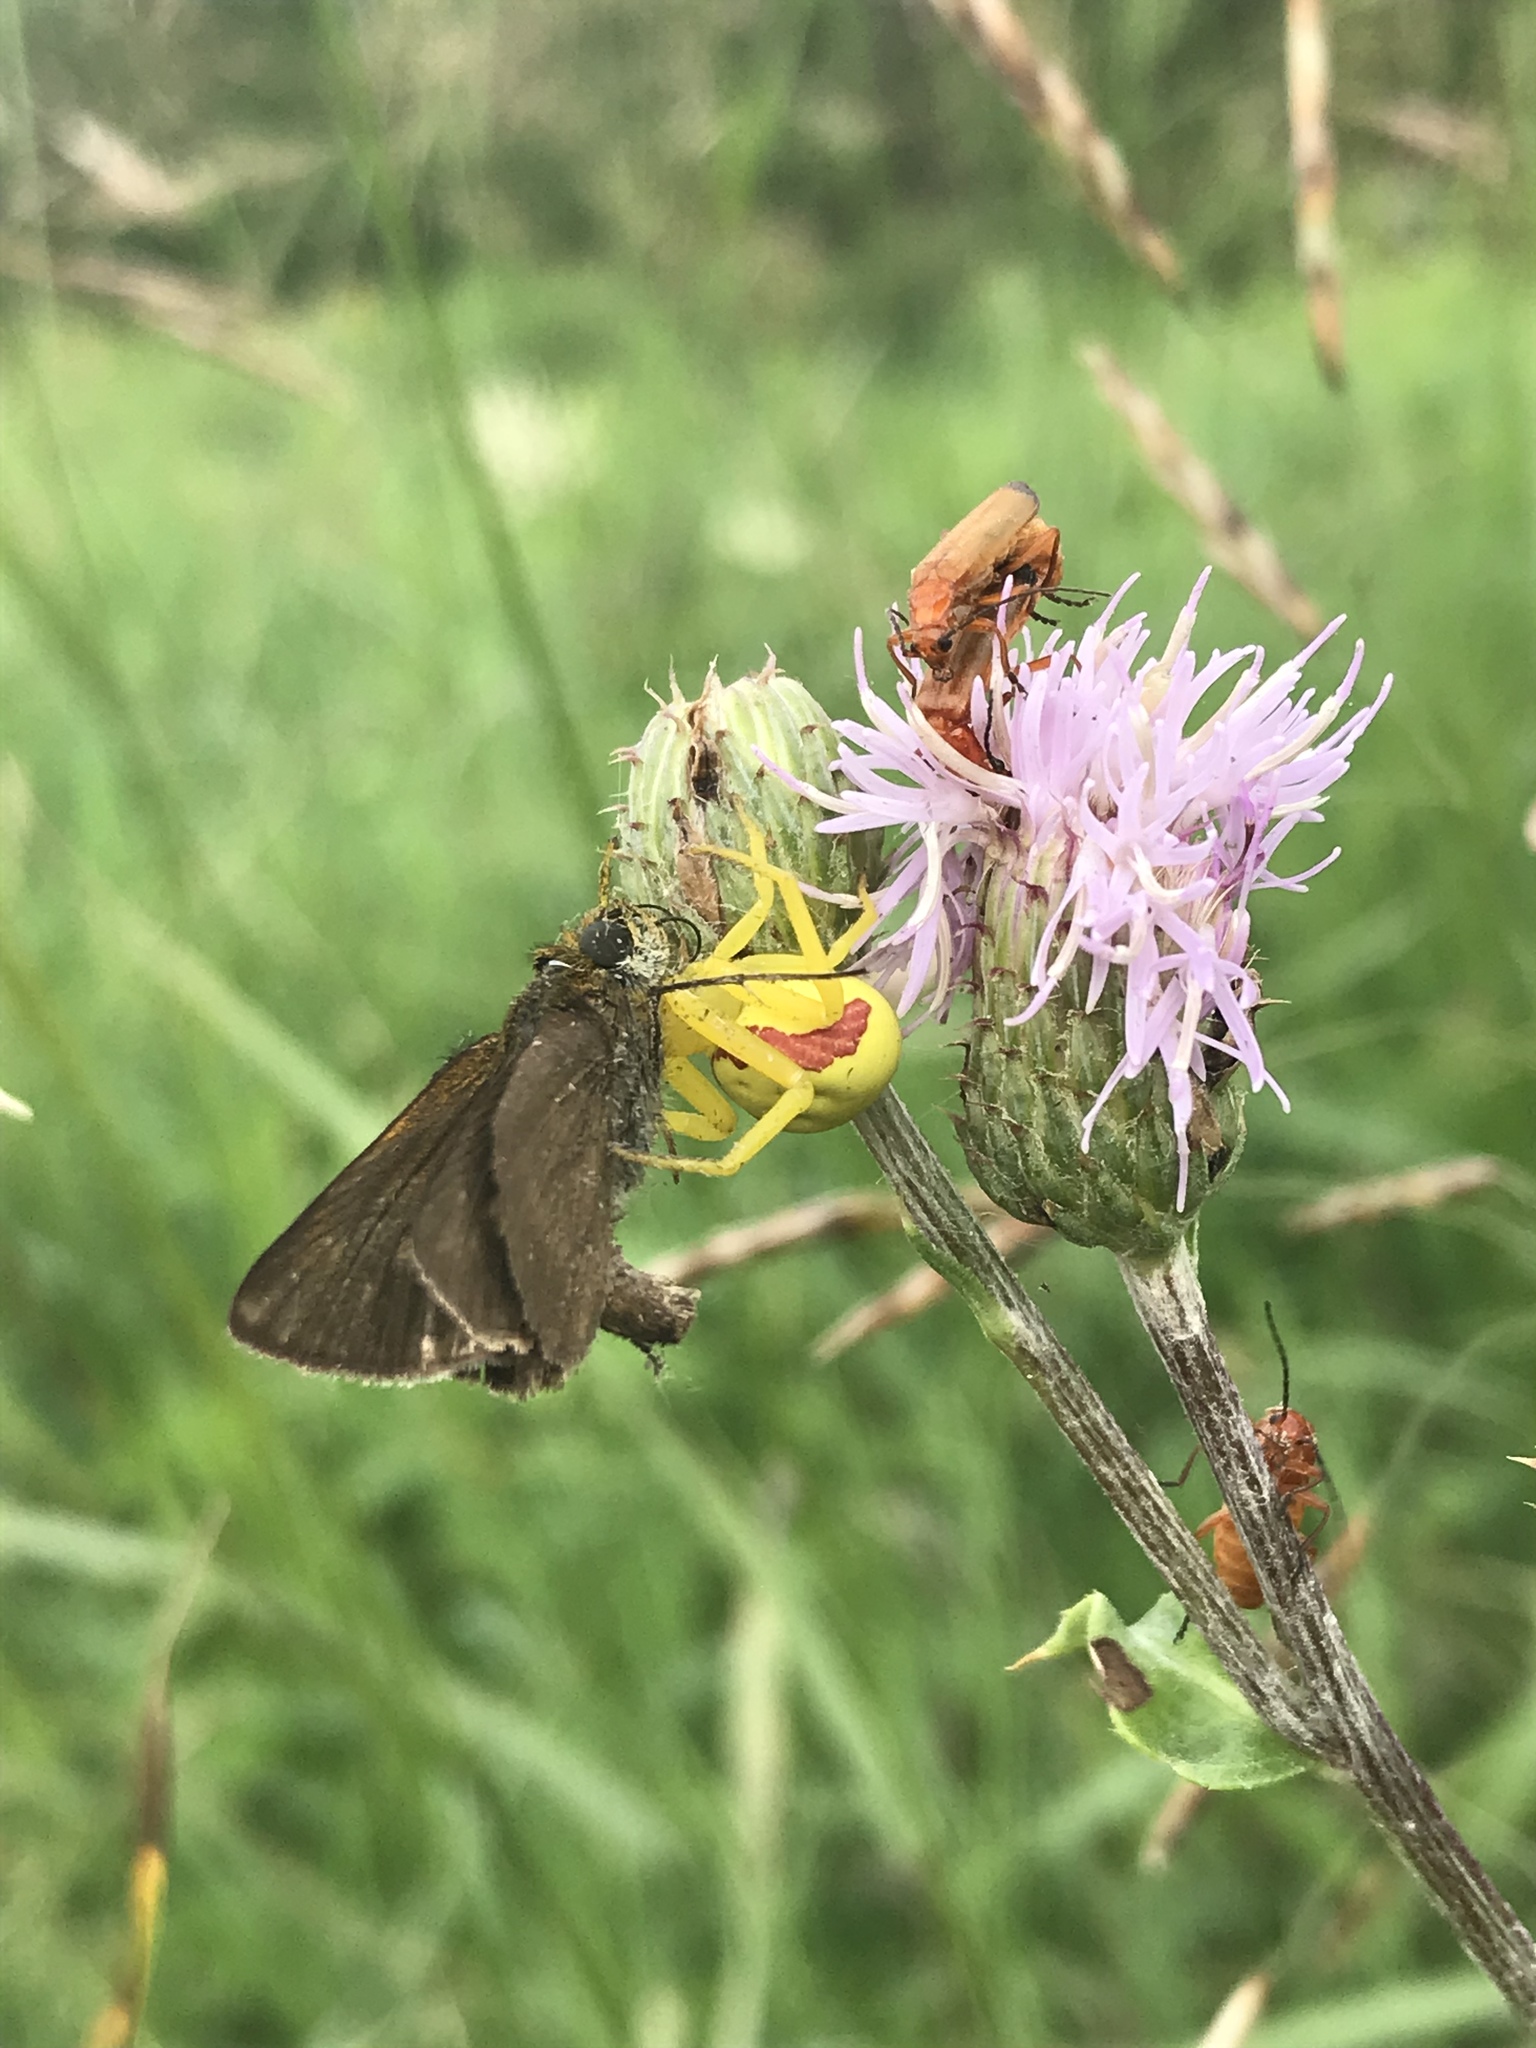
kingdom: Animalia
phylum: Arthropoda
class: Arachnida
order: Araneae
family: Thomisidae
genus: Misumena
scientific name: Misumena vatia
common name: Goldenrod crab spider
